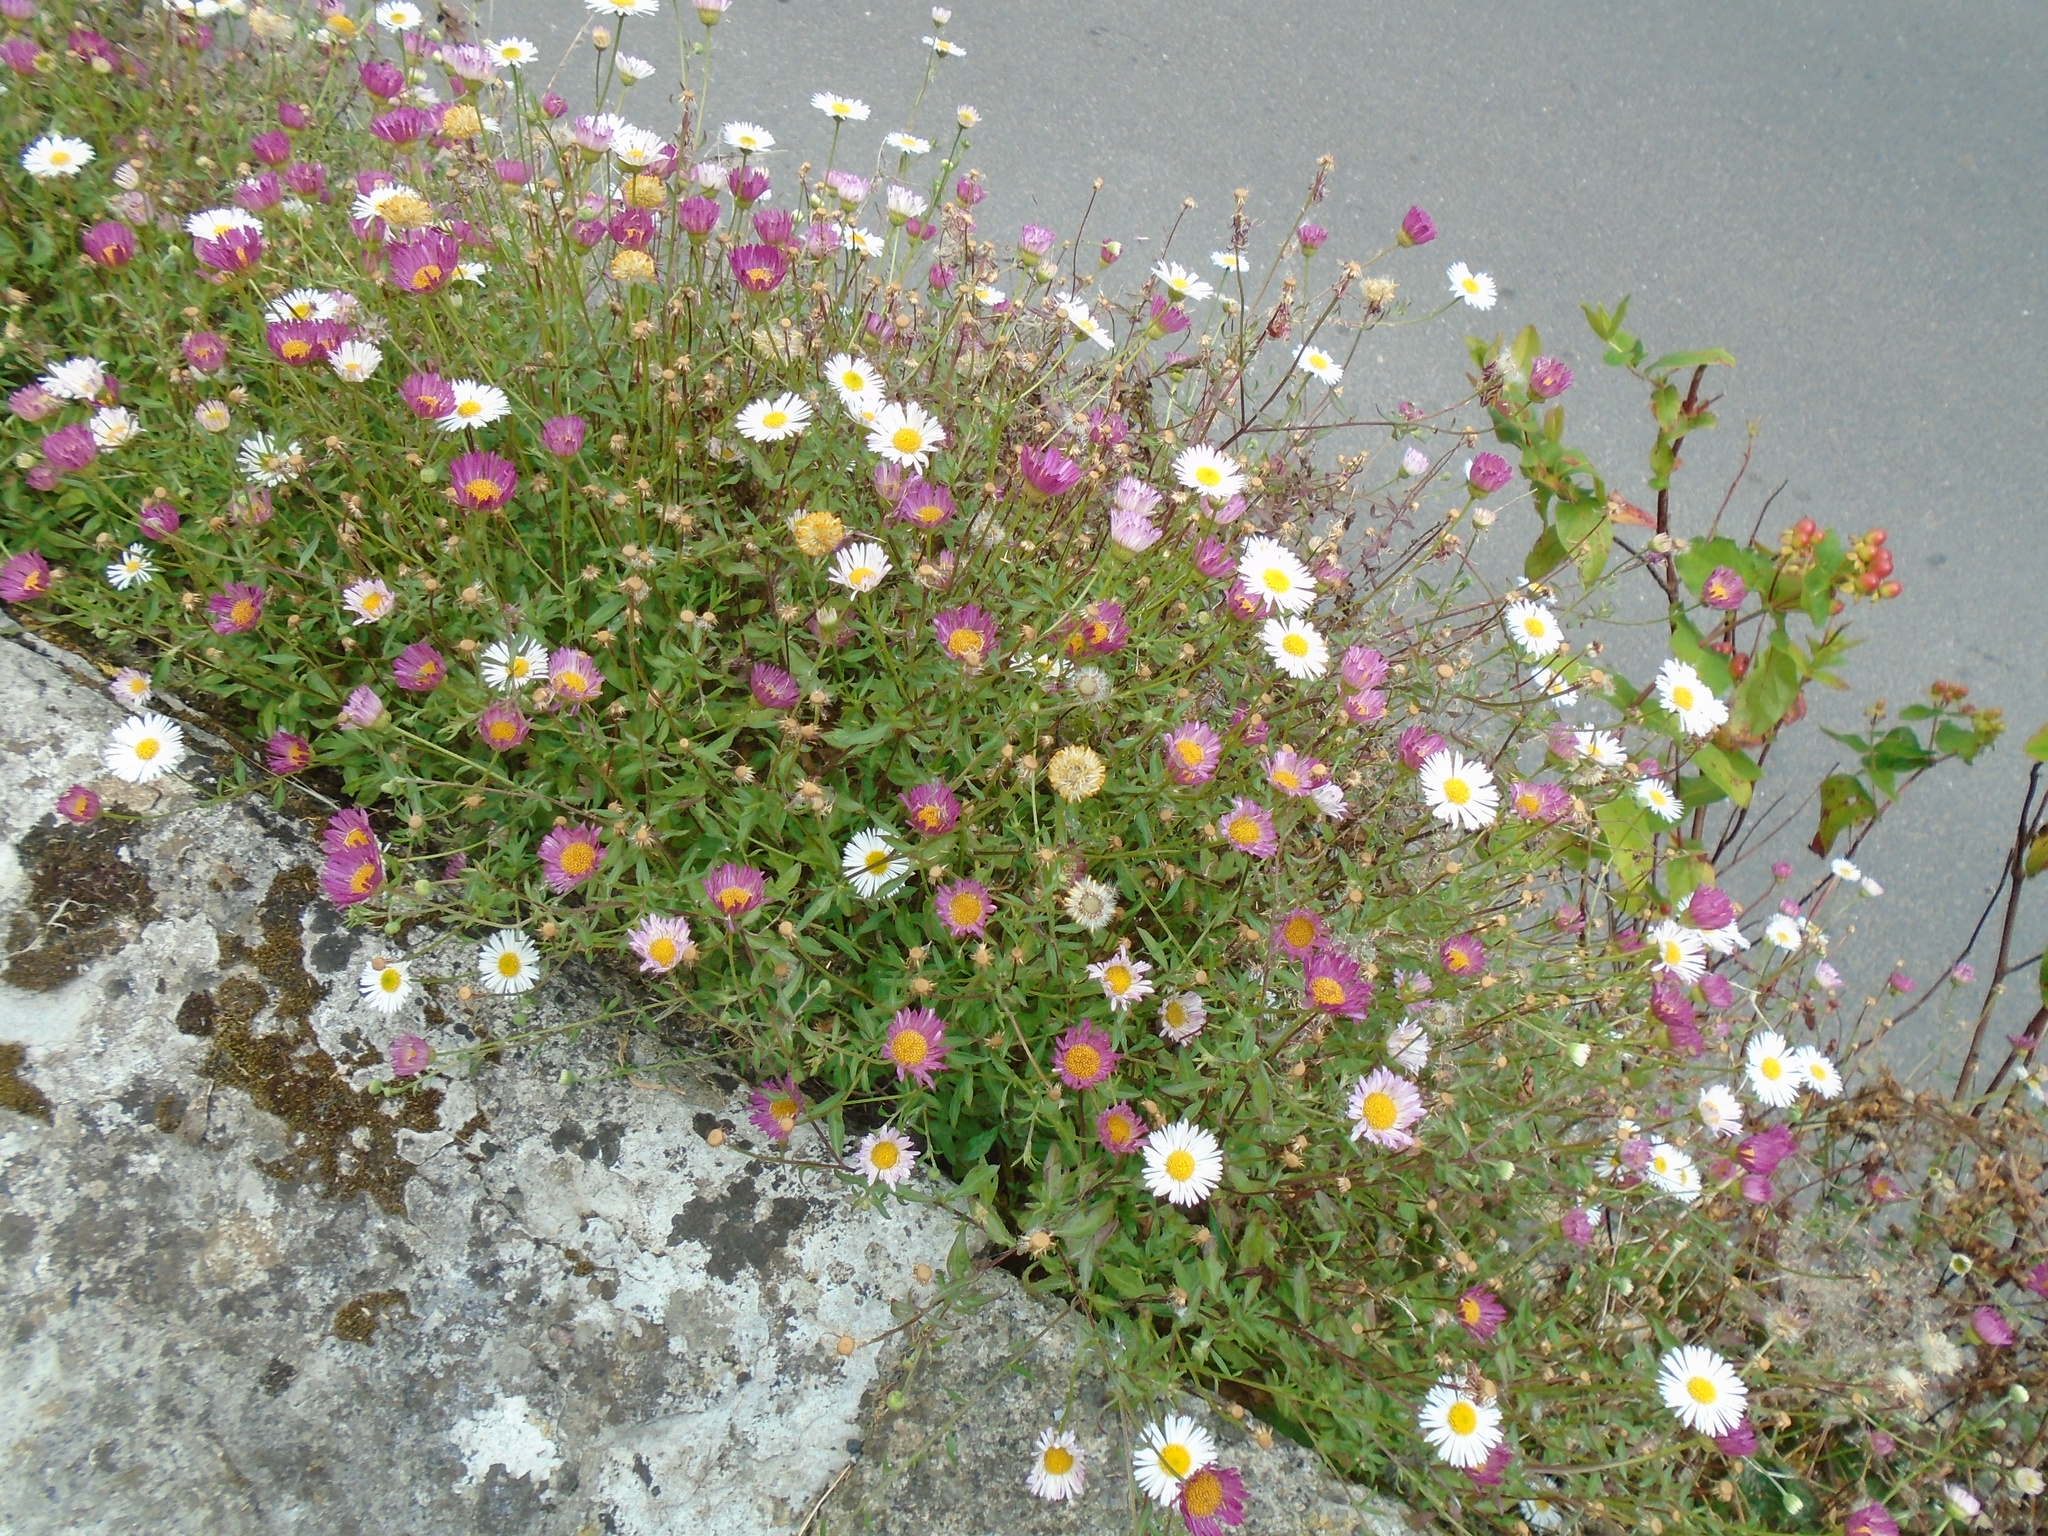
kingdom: Plantae
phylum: Tracheophyta
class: Magnoliopsida
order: Asterales
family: Asteraceae
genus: Erigeron
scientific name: Erigeron karvinskianus
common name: Mexican fleabane
